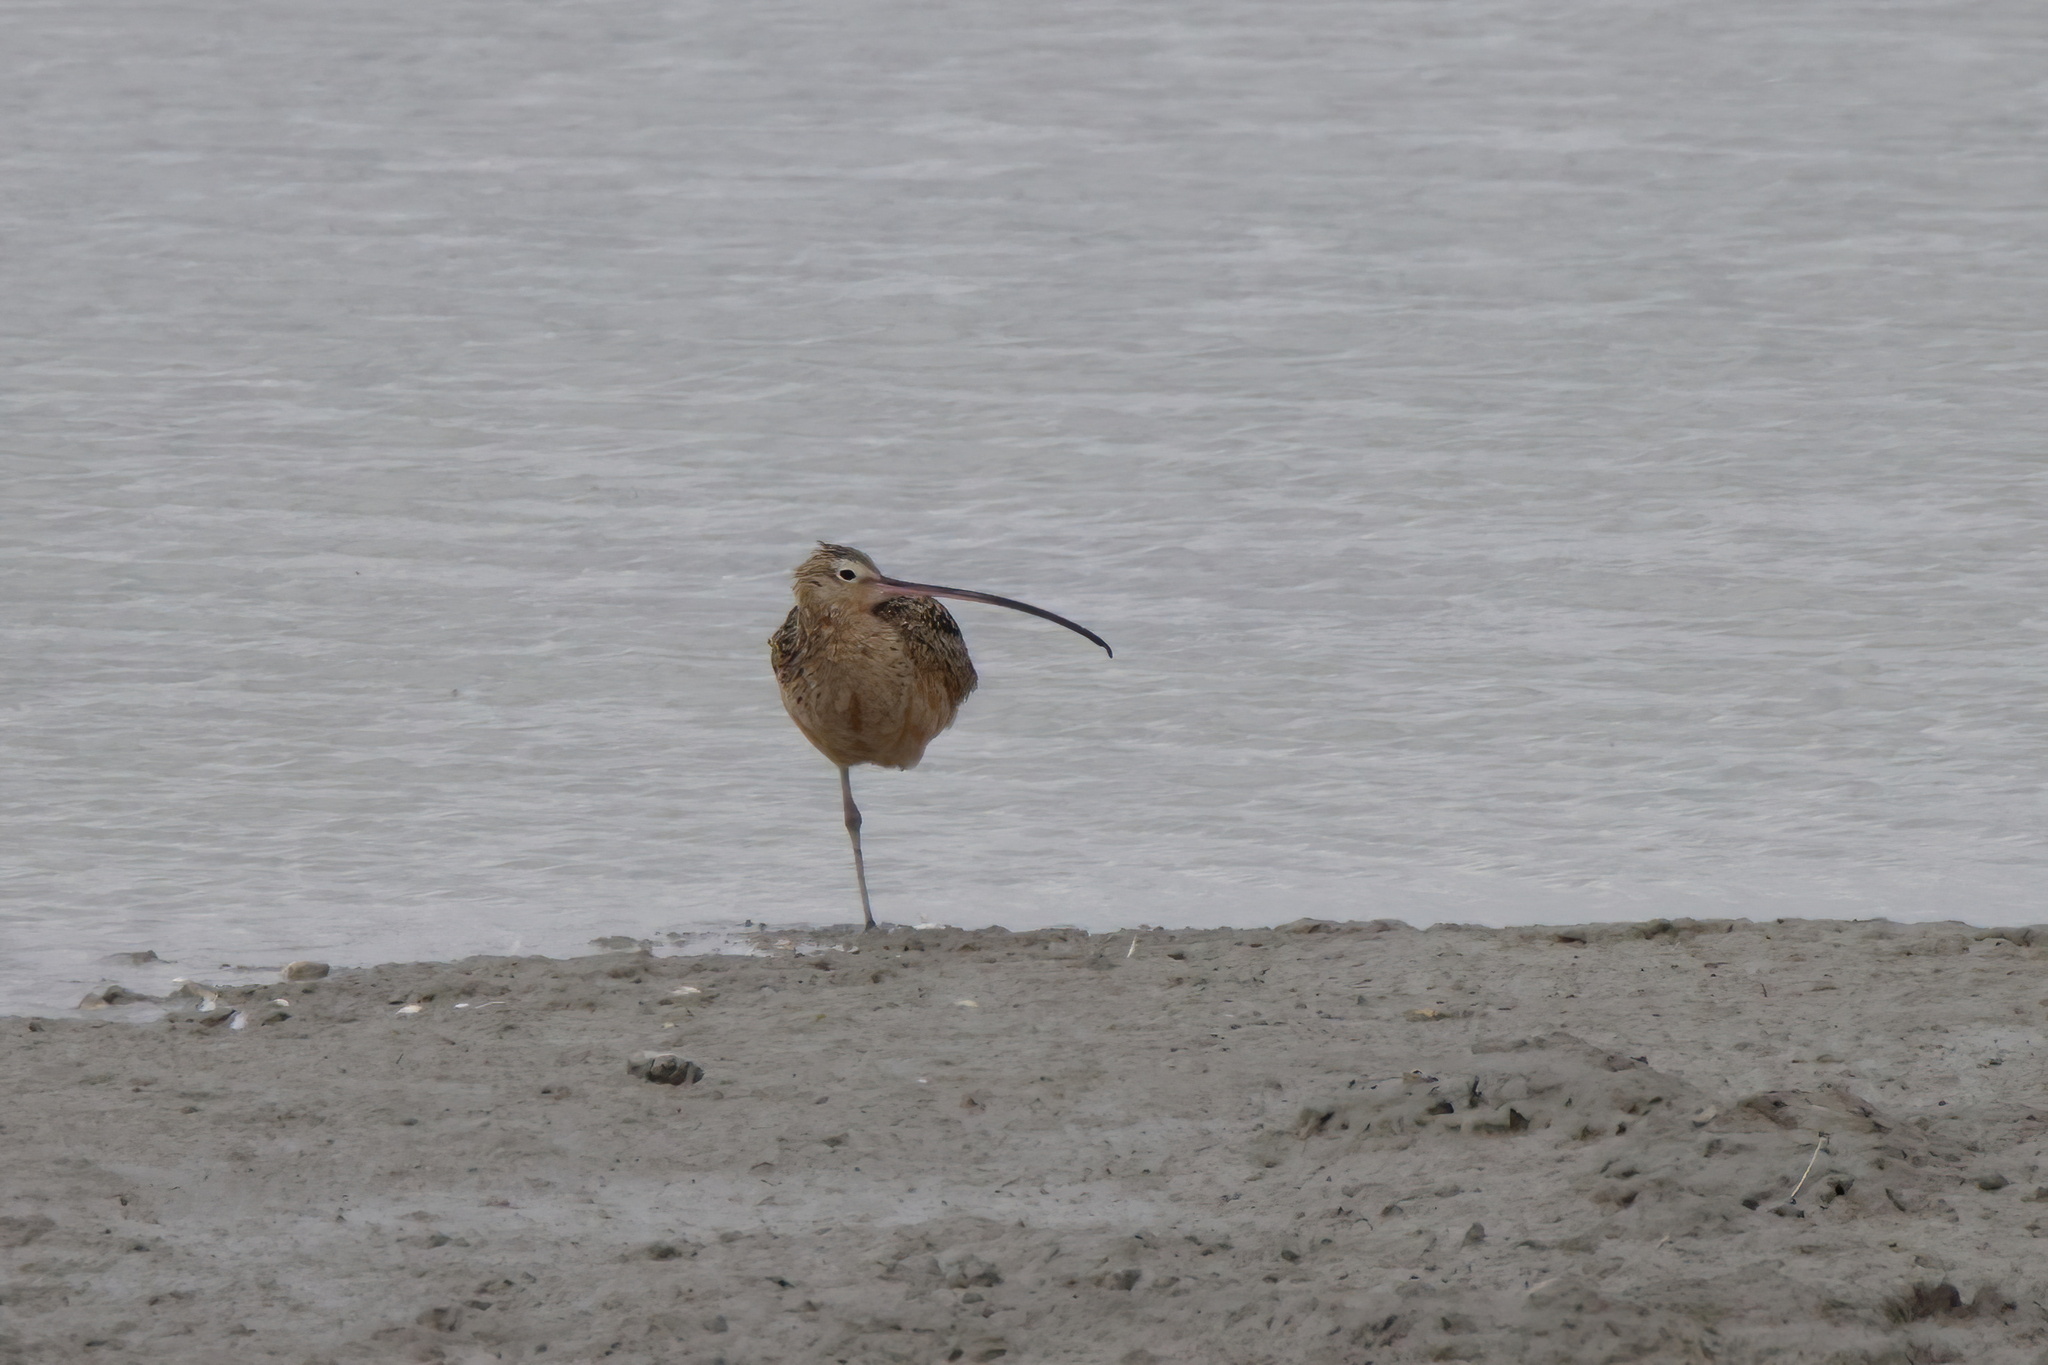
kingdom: Animalia
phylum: Chordata
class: Aves
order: Charadriiformes
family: Scolopacidae
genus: Numenius
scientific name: Numenius americanus
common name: Long-billed curlew
